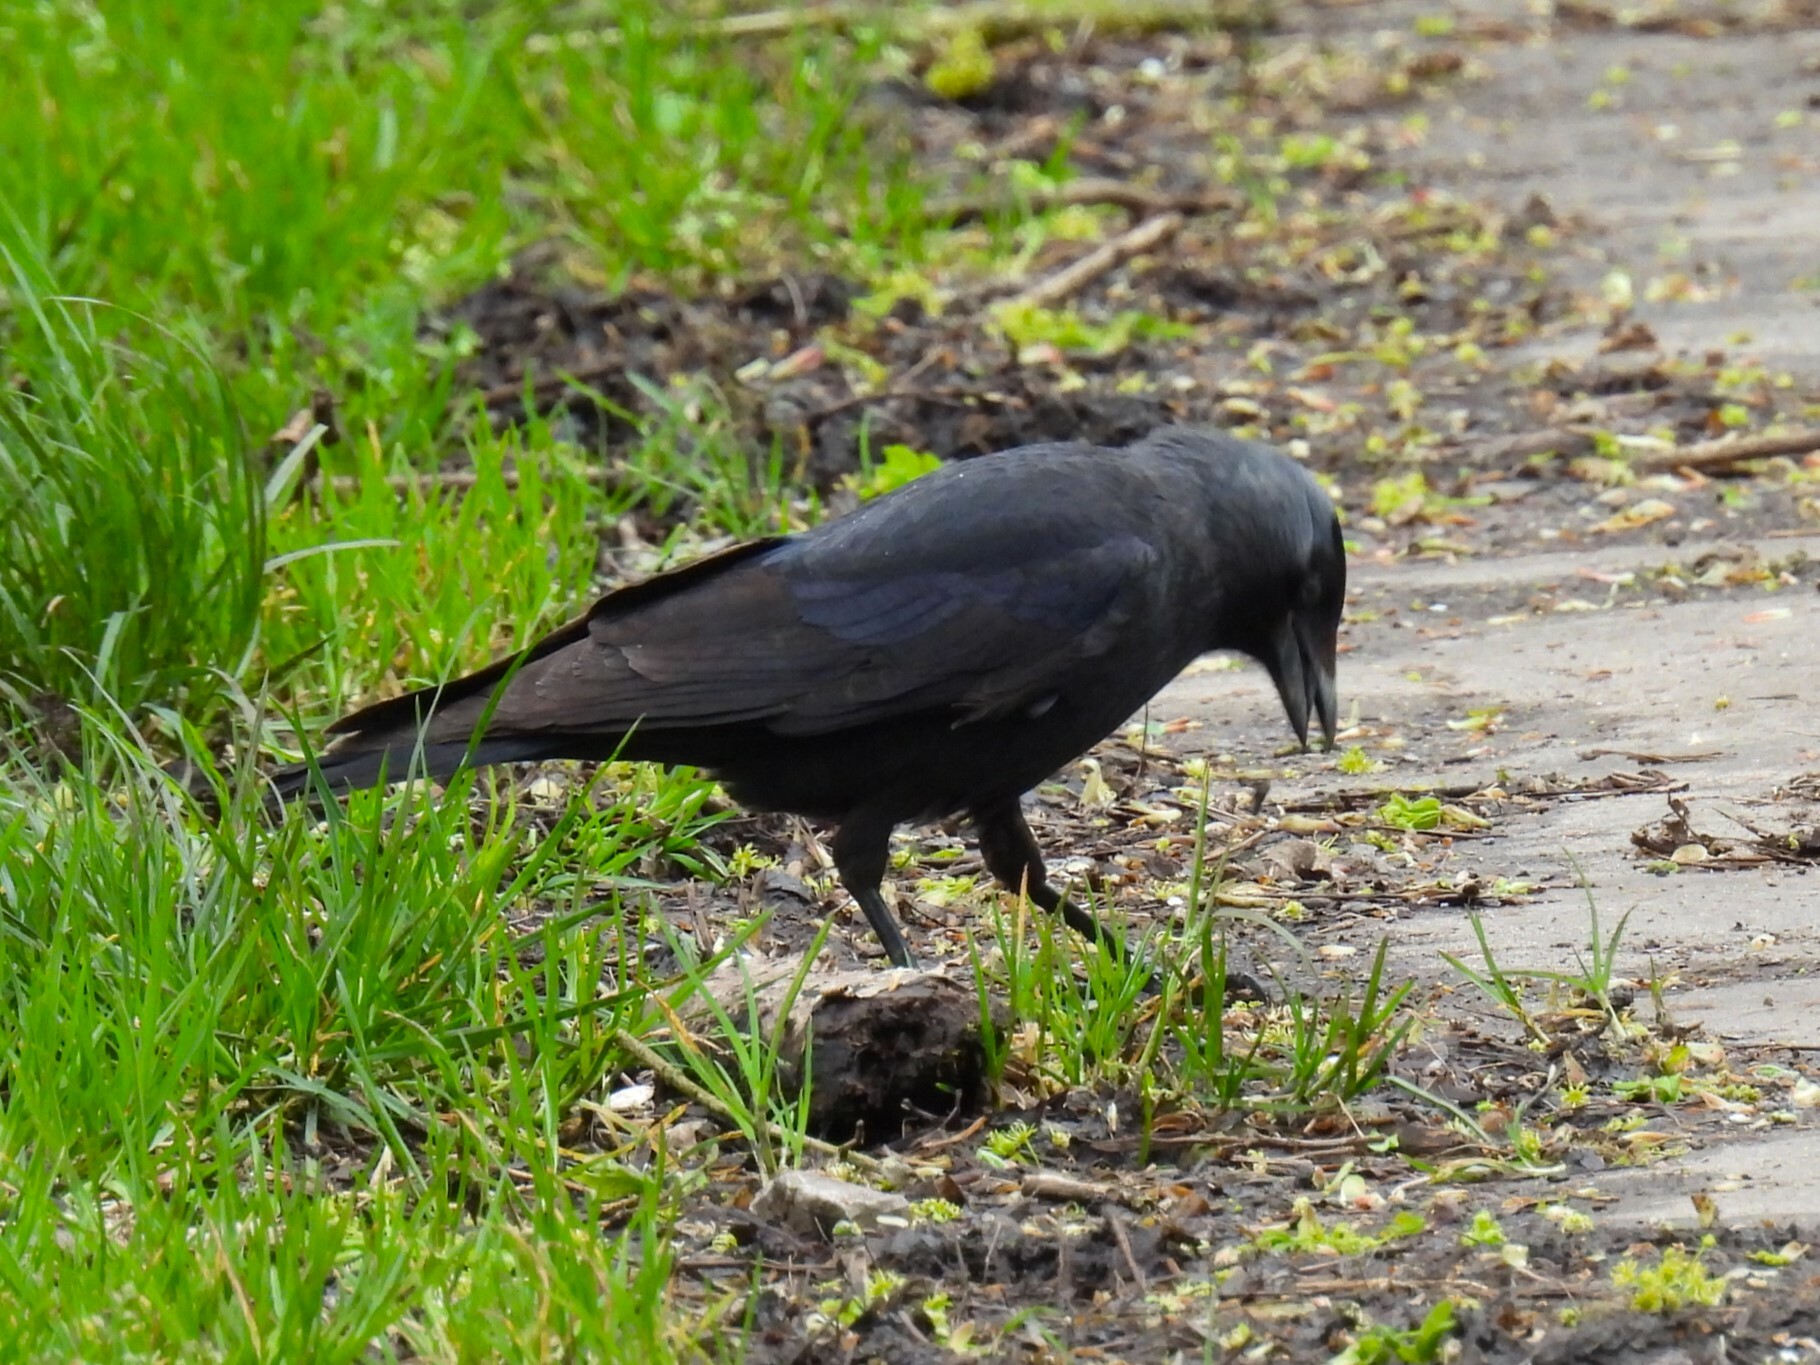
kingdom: Animalia
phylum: Chordata
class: Aves
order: Passeriformes
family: Corvidae
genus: Coloeus
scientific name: Coloeus monedula
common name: Western jackdaw
